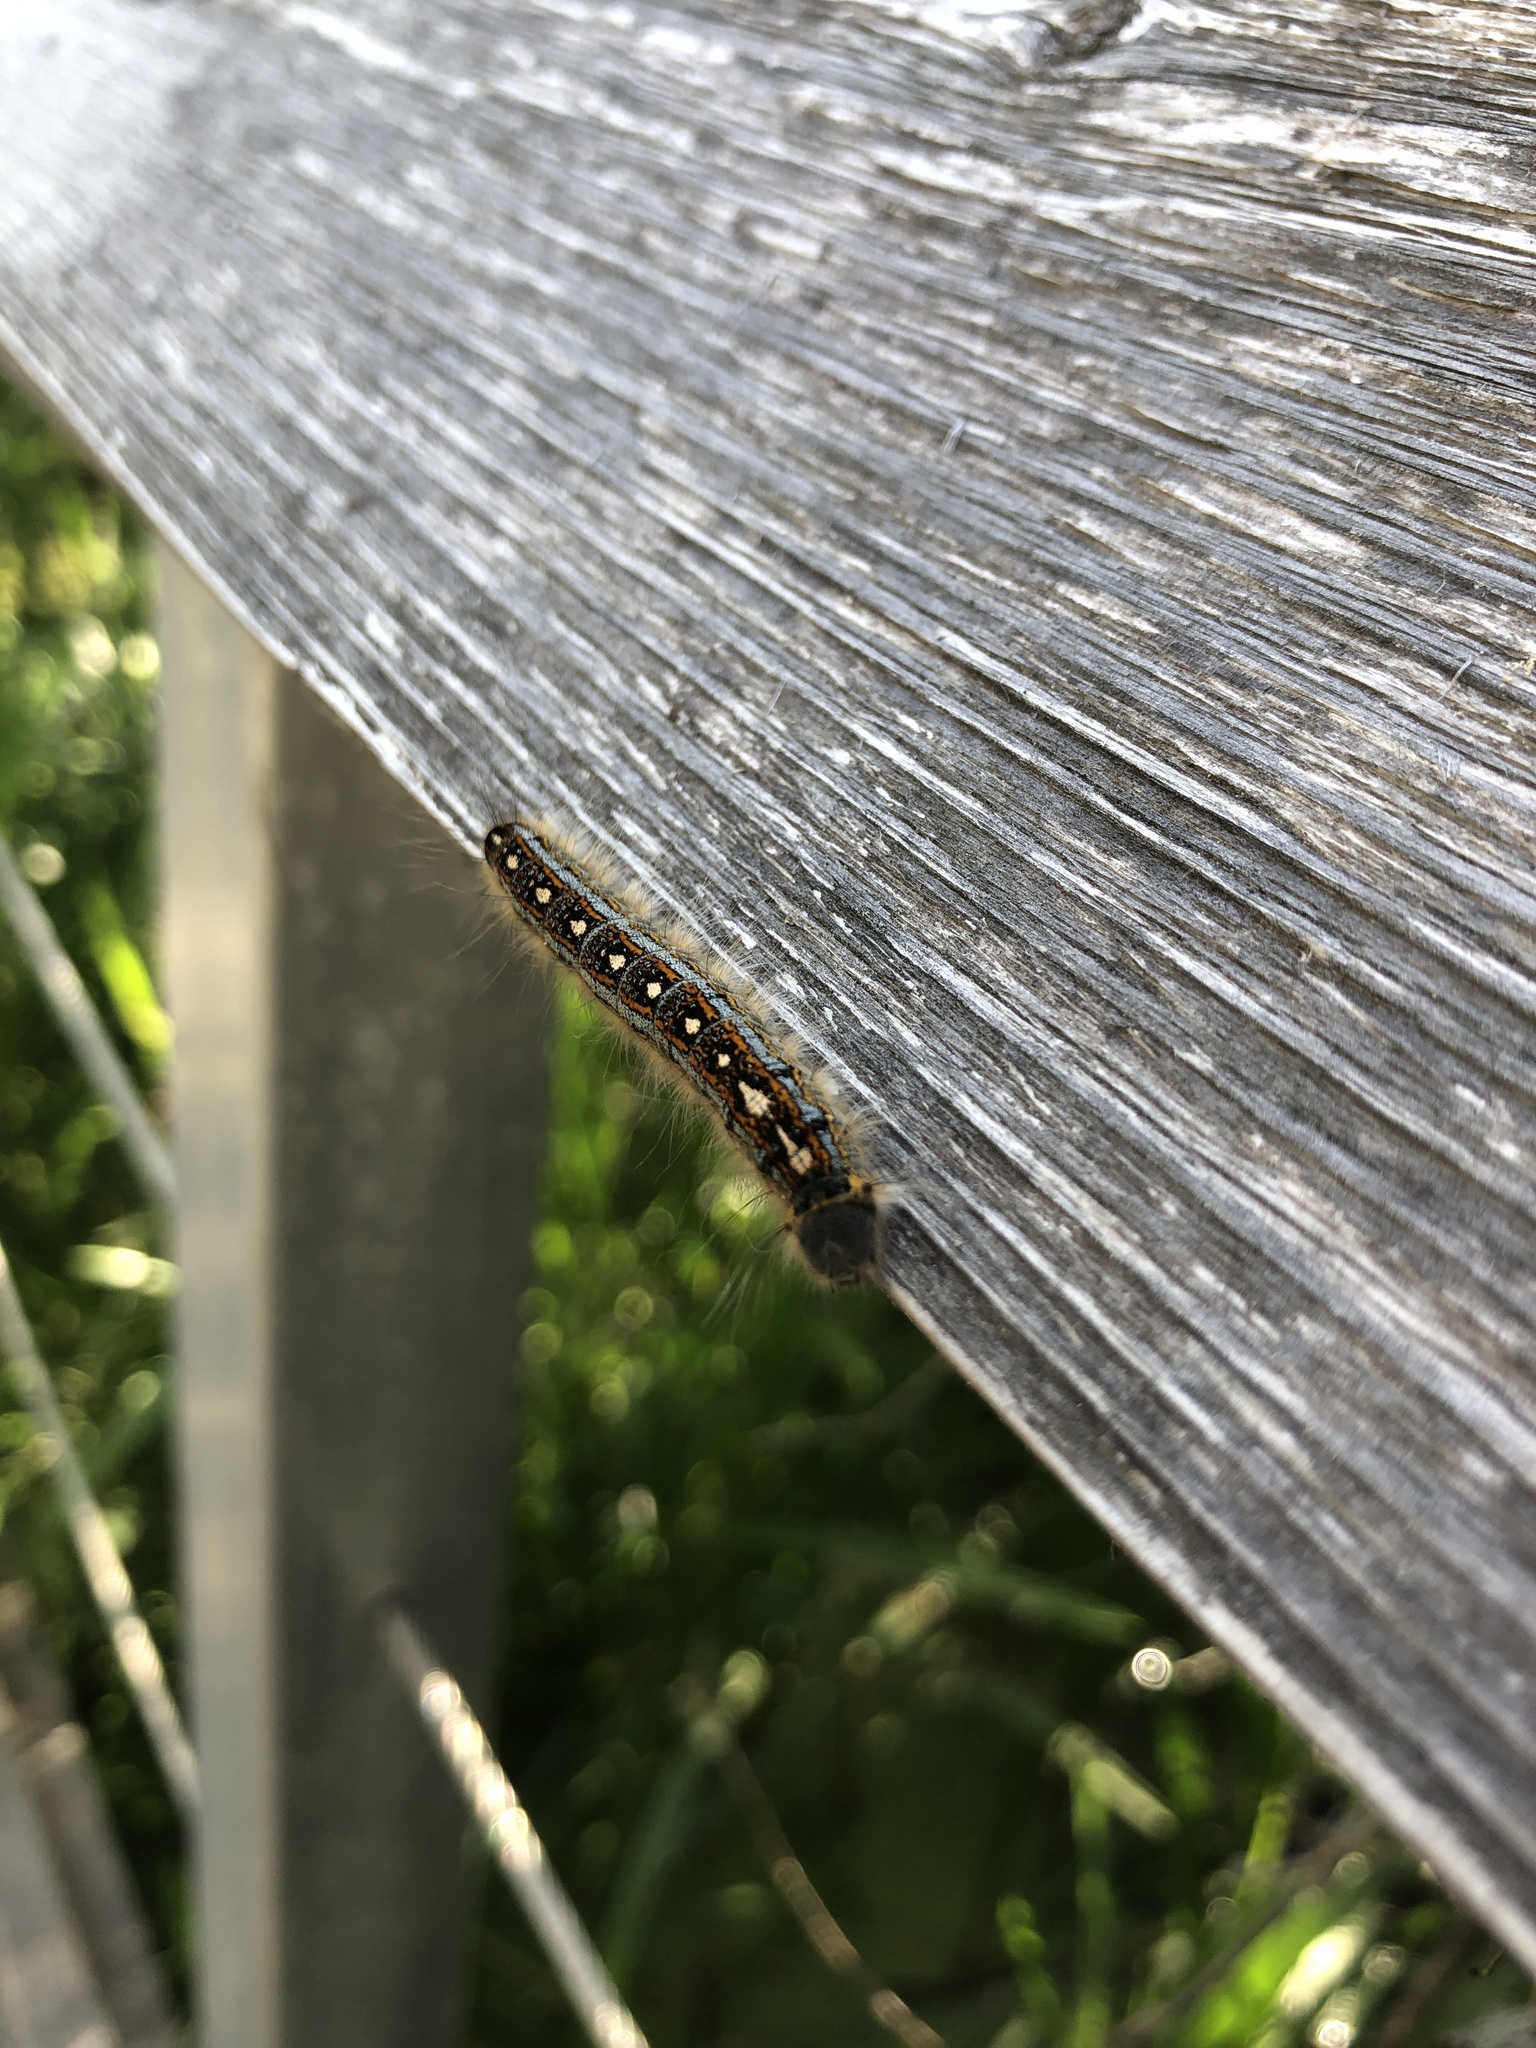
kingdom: Animalia
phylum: Arthropoda
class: Insecta
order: Lepidoptera
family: Lasiocampidae
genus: Malacosoma
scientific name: Malacosoma disstria
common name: Forest tent caterpillar
